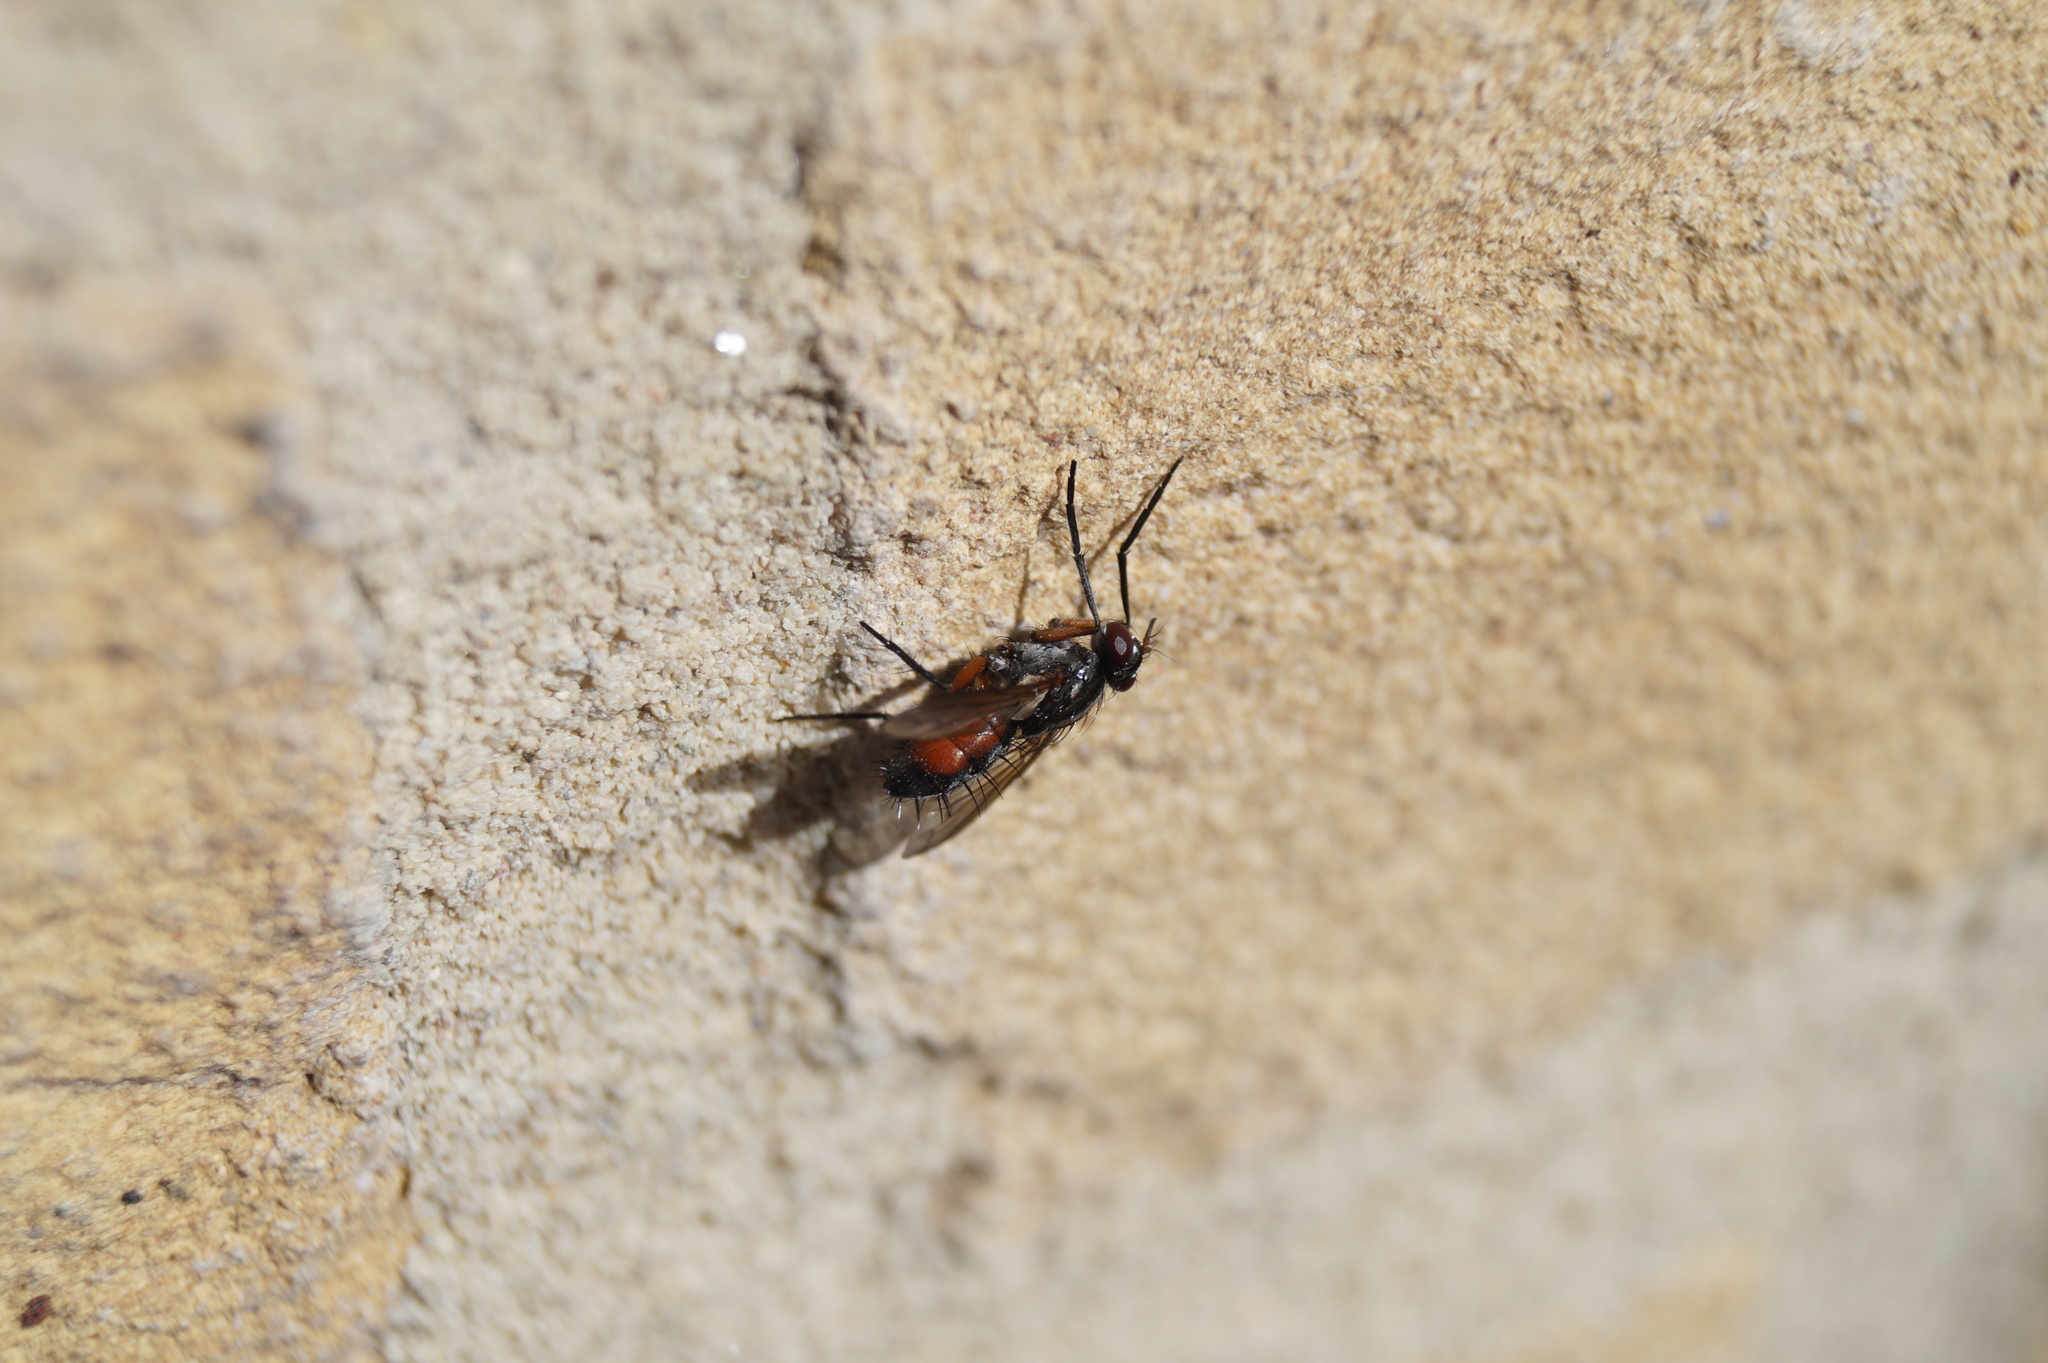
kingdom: Animalia
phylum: Arthropoda
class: Insecta
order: Diptera
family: Tachinidae
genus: Mintho
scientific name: Mintho rufiventris
